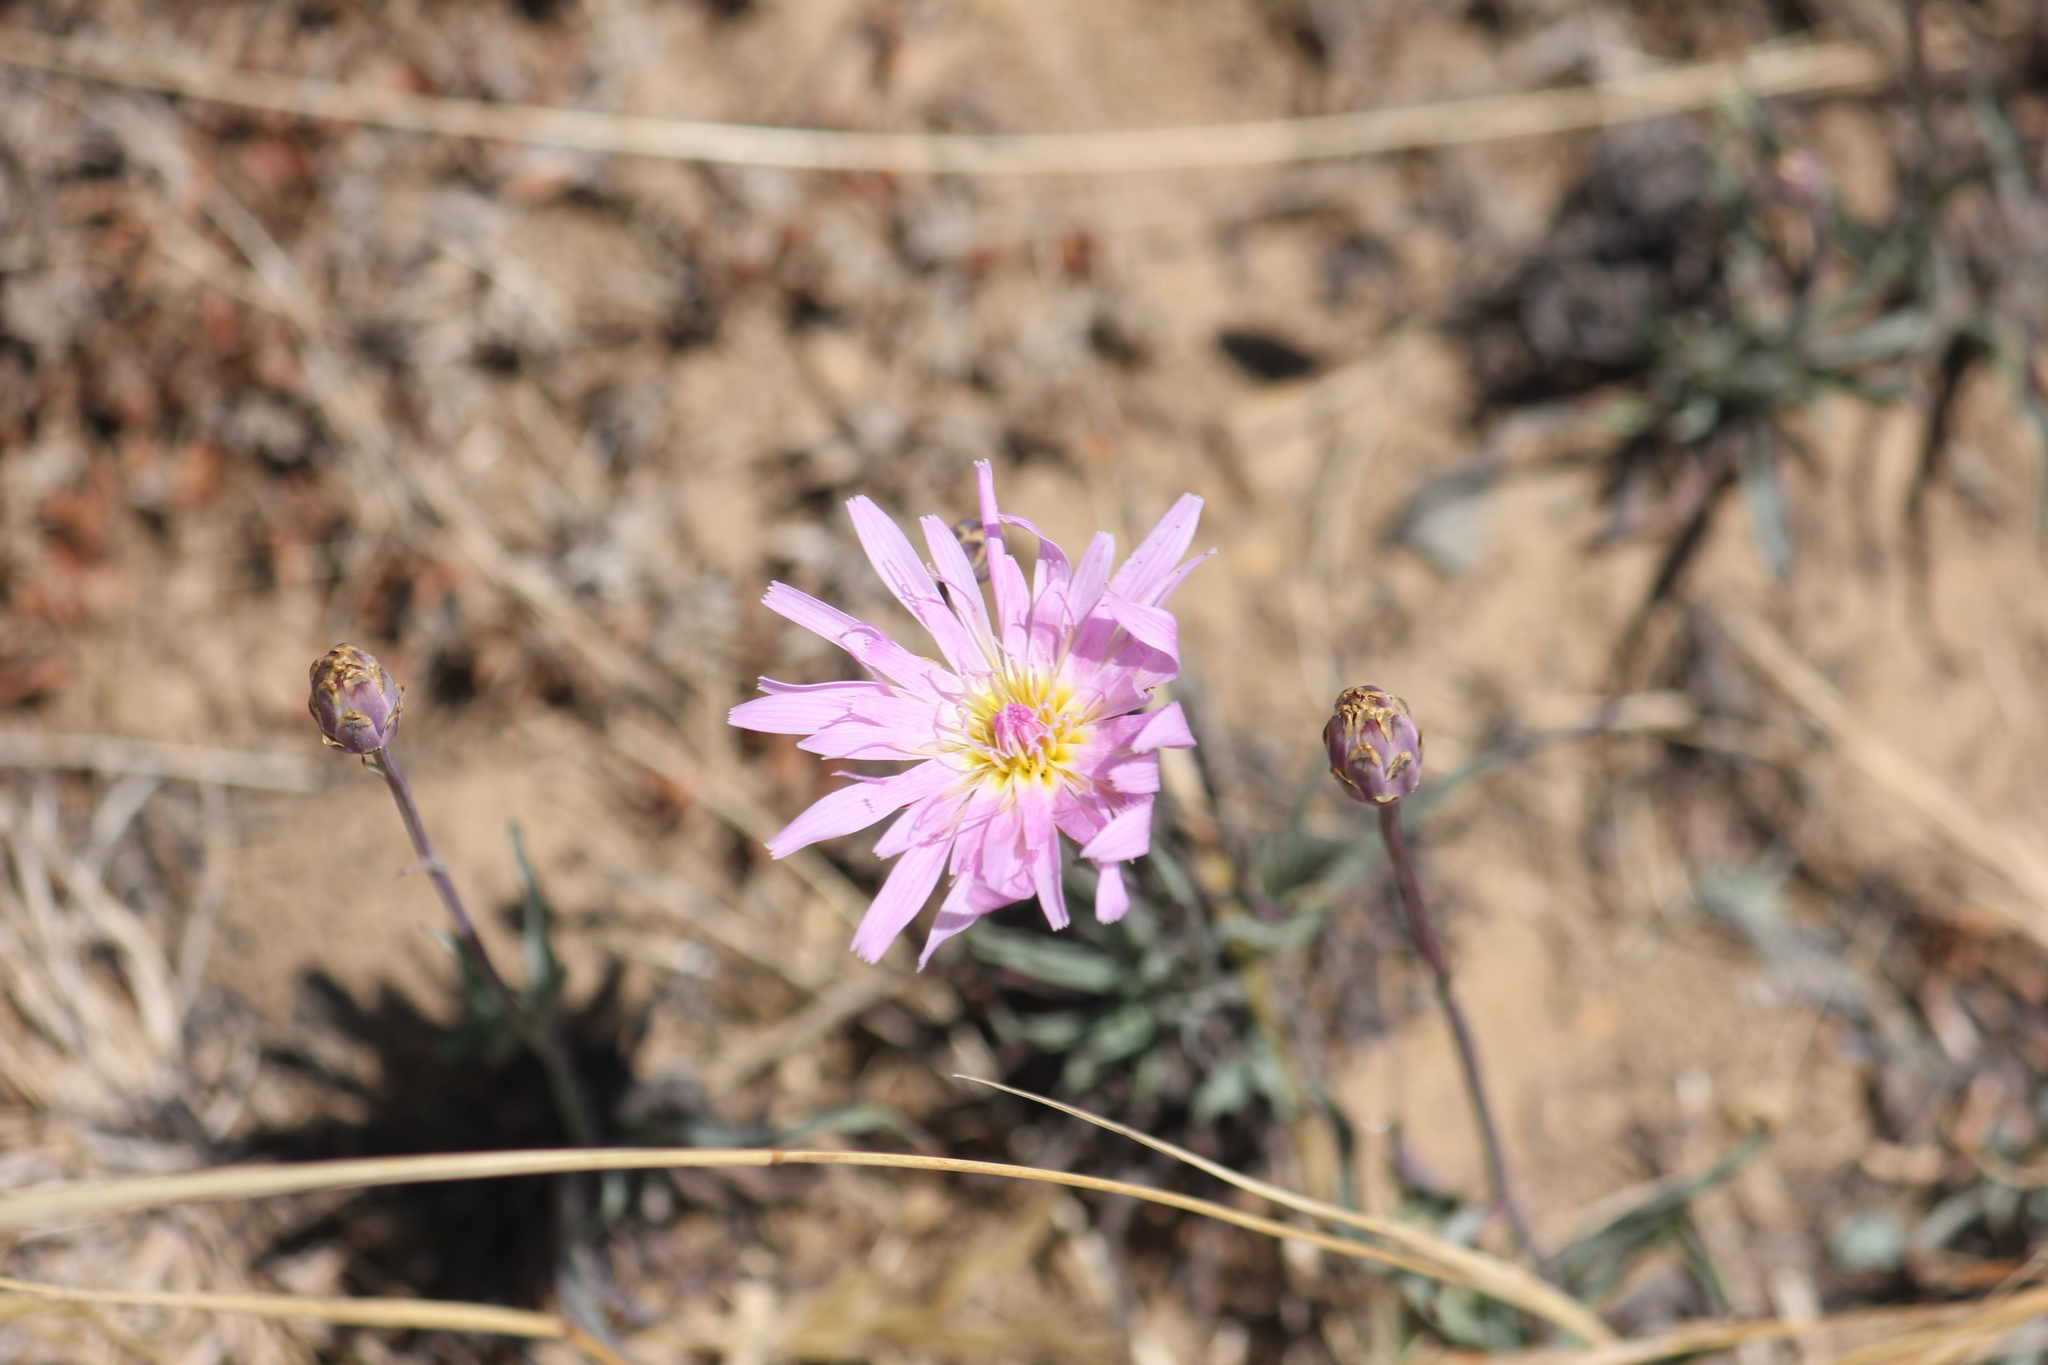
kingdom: Plantae
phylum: Tracheophyta
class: Magnoliopsida
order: Asterales
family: Asteraceae
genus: Pinaropappus
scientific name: Pinaropappus roseus
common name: Rock-lettuce
